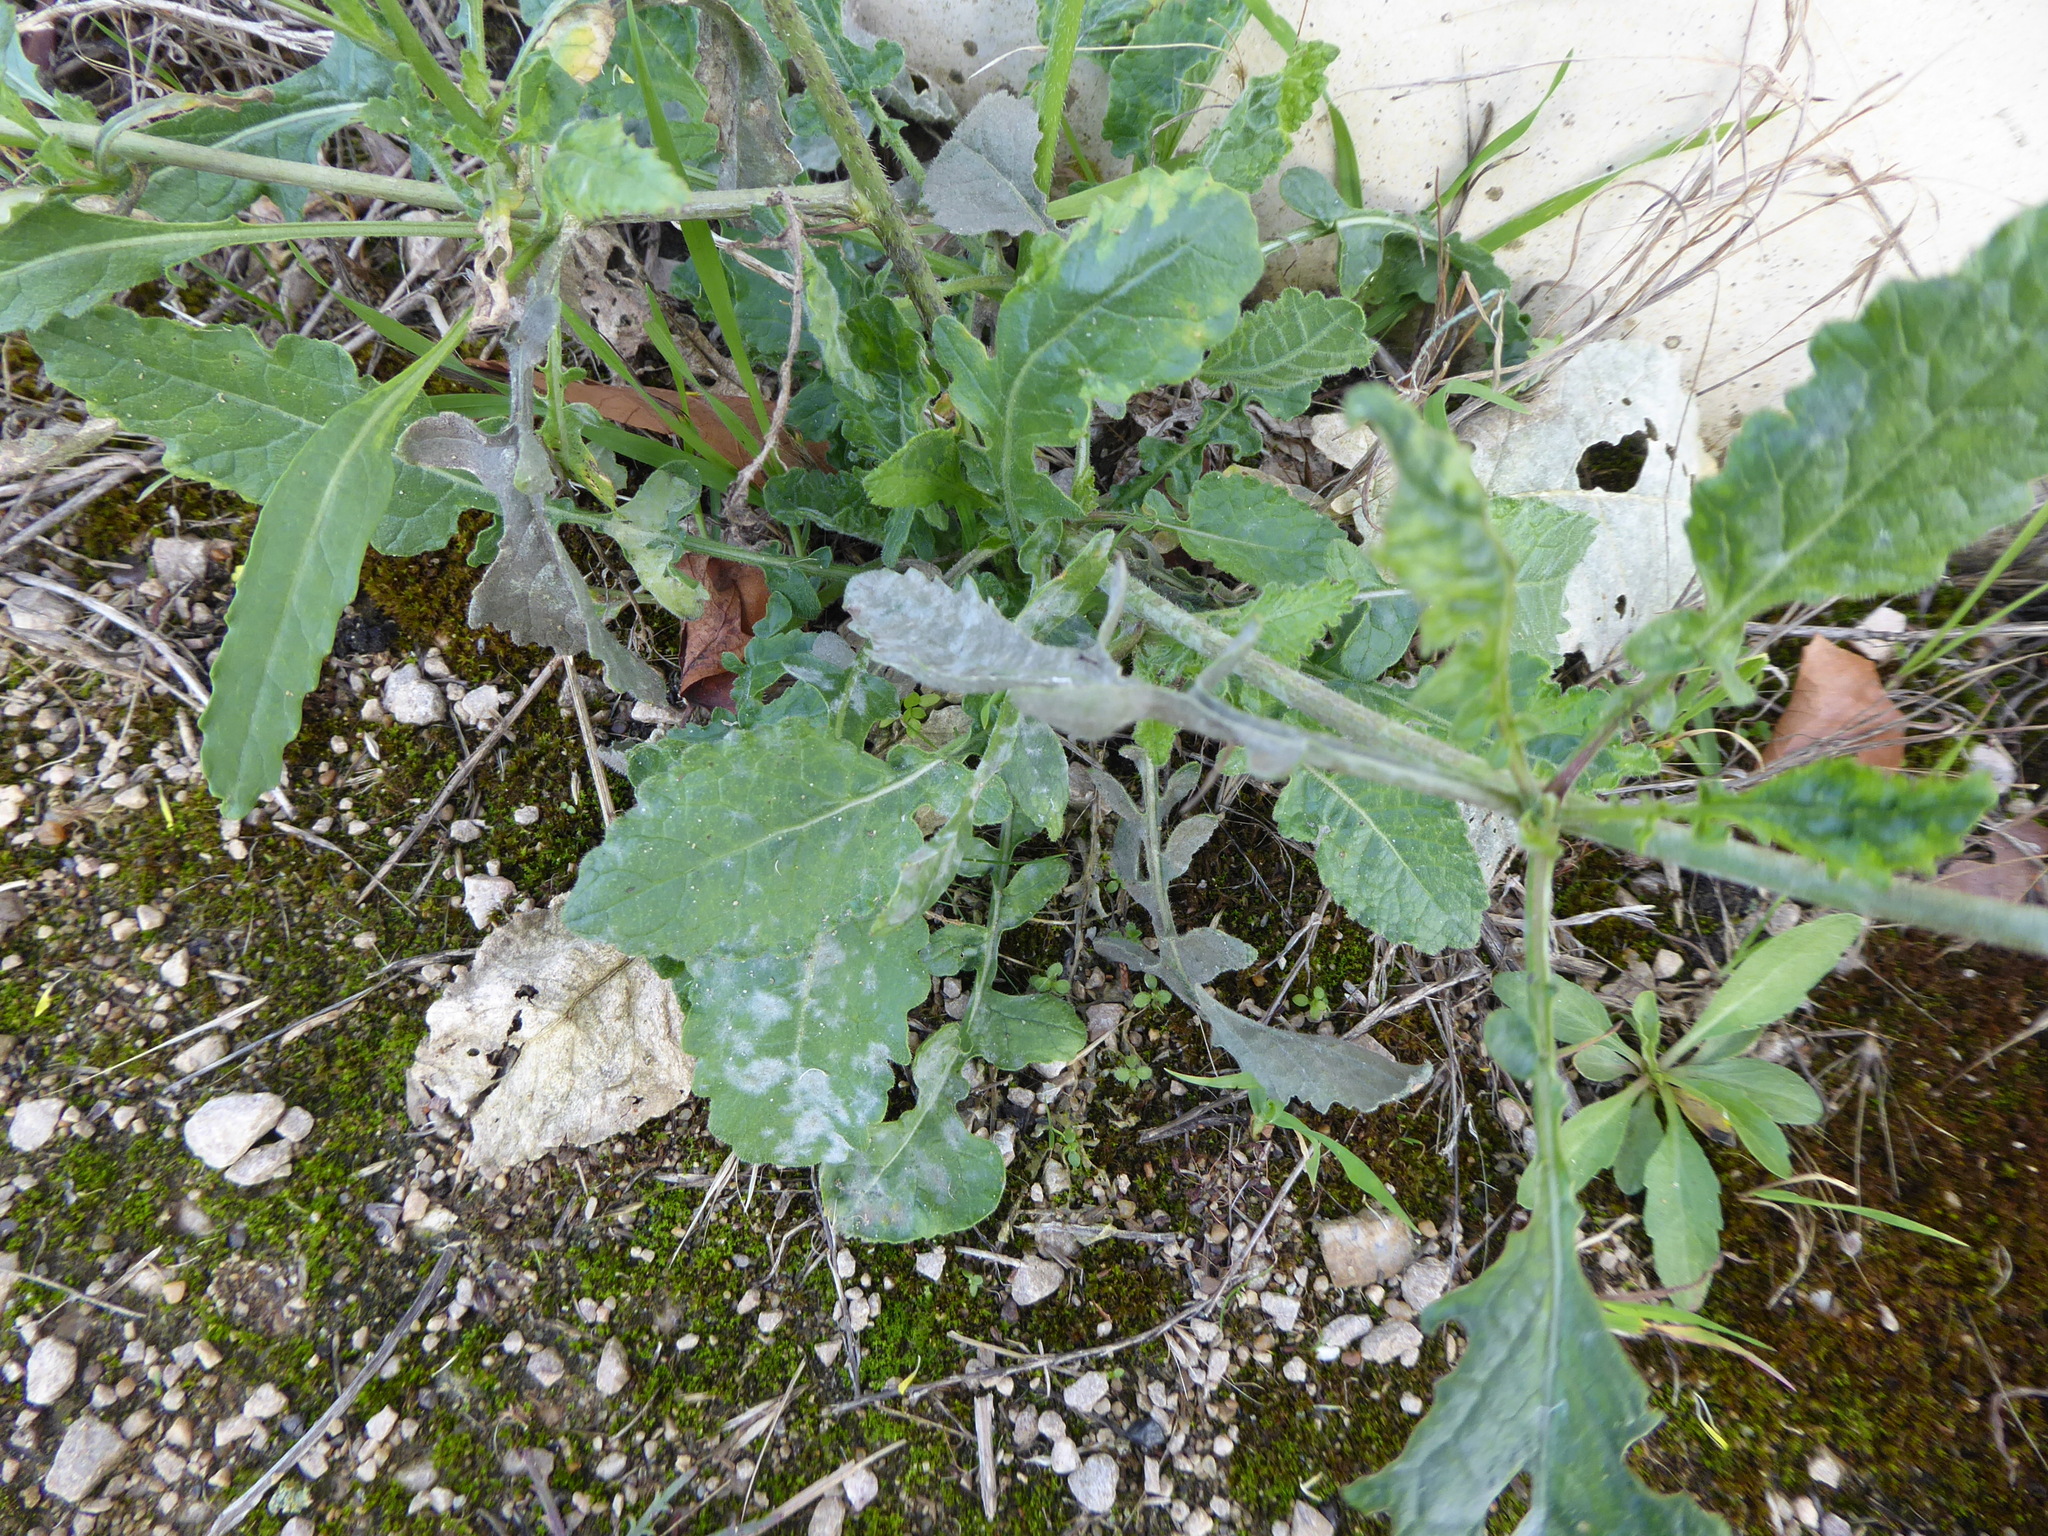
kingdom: Fungi
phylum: Ascomycota
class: Leotiomycetes
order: Helotiales
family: Erysiphaceae
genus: Erysiphe
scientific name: Erysiphe cruciferarum
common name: Brassica powdery mildew
